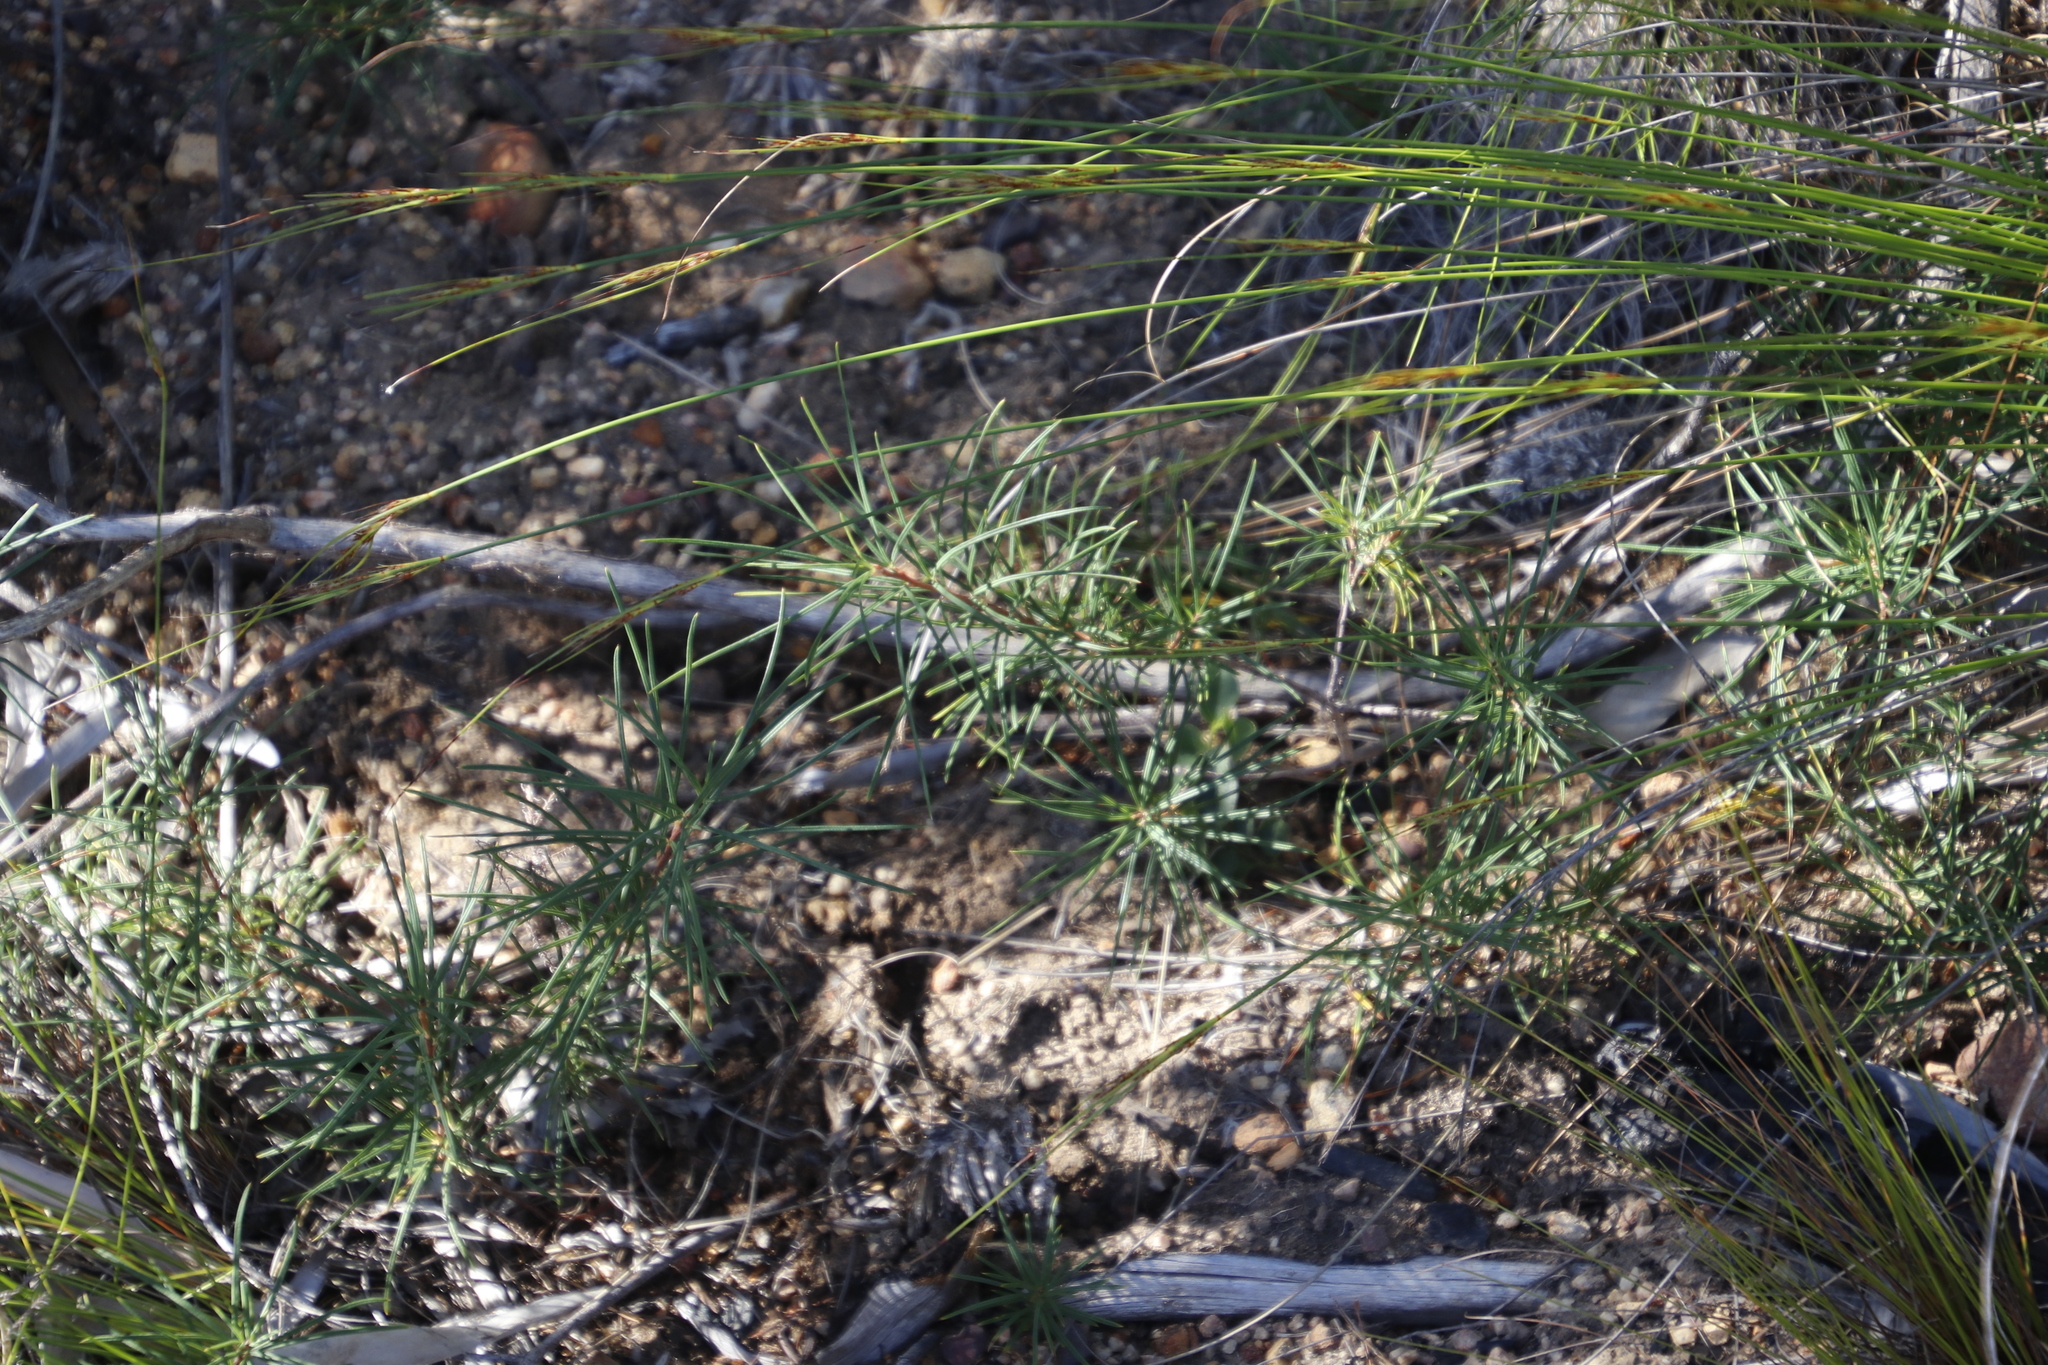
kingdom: Plantae
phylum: Tracheophyta
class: Magnoliopsida
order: Sapindales
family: Anacardiaceae
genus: Searsia
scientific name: Searsia rosmarinifolia
